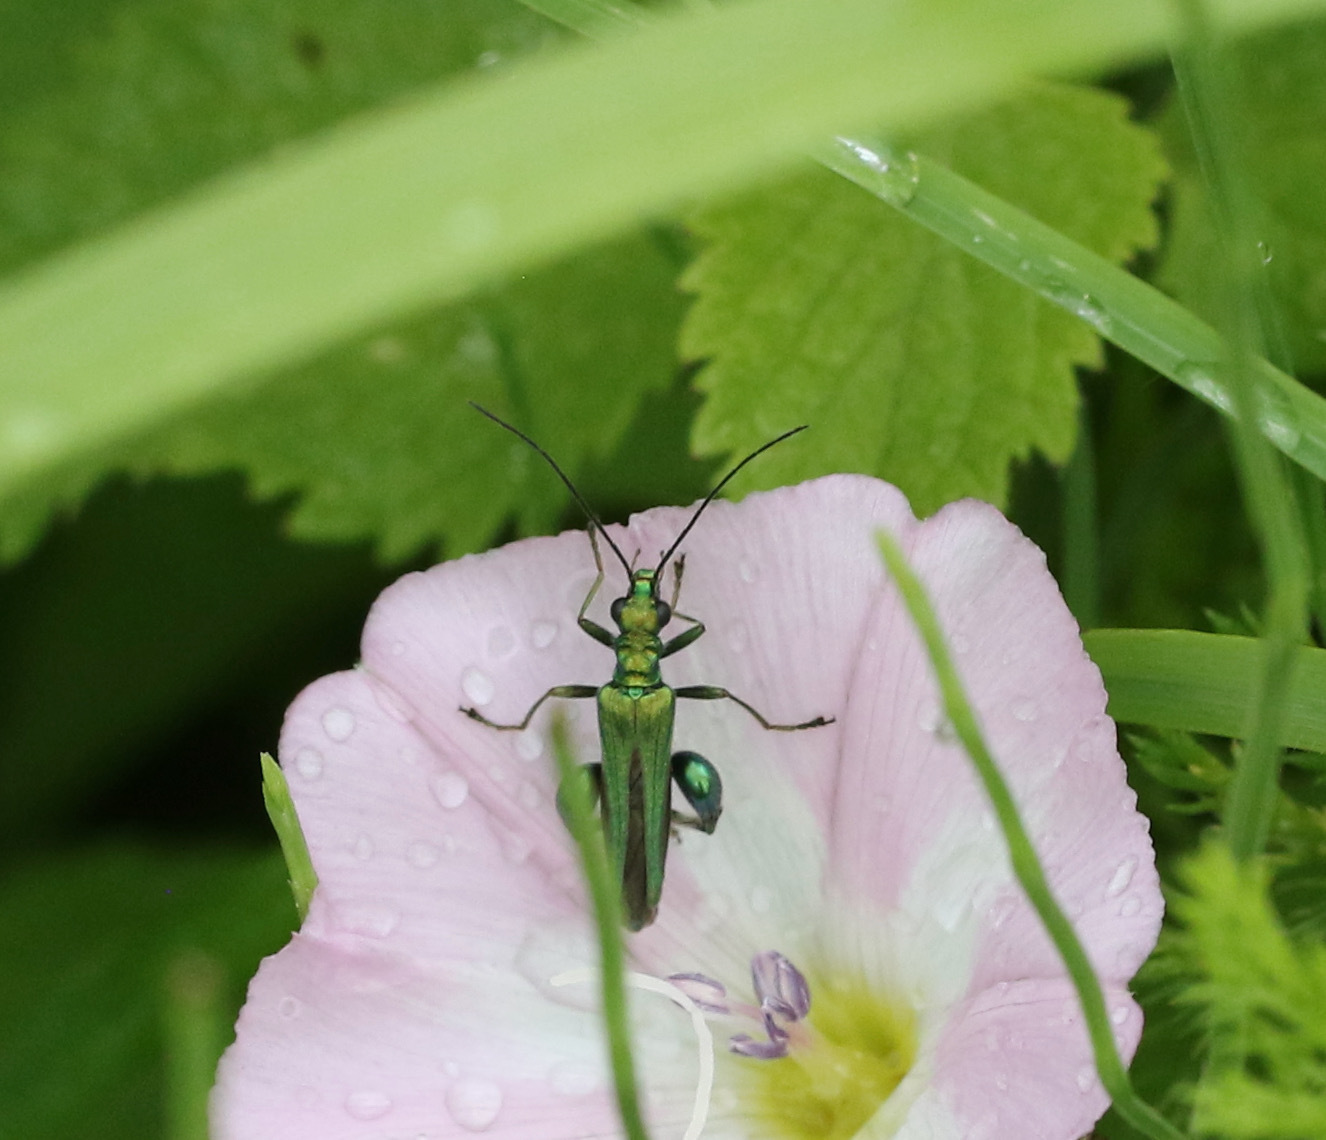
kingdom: Animalia
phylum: Arthropoda
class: Insecta
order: Coleoptera
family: Oedemeridae
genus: Oedemera
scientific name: Oedemera nobilis
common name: Swollen-thighed beetle
